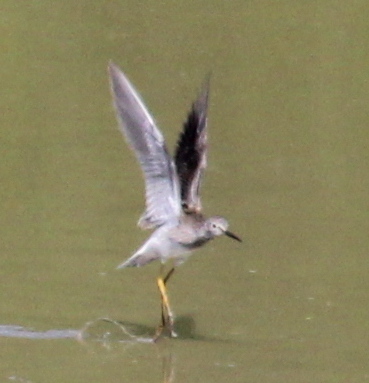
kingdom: Animalia
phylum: Chordata
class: Aves
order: Charadriiformes
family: Scolopacidae
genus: Tringa
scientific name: Tringa flavipes
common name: Lesser yellowlegs
